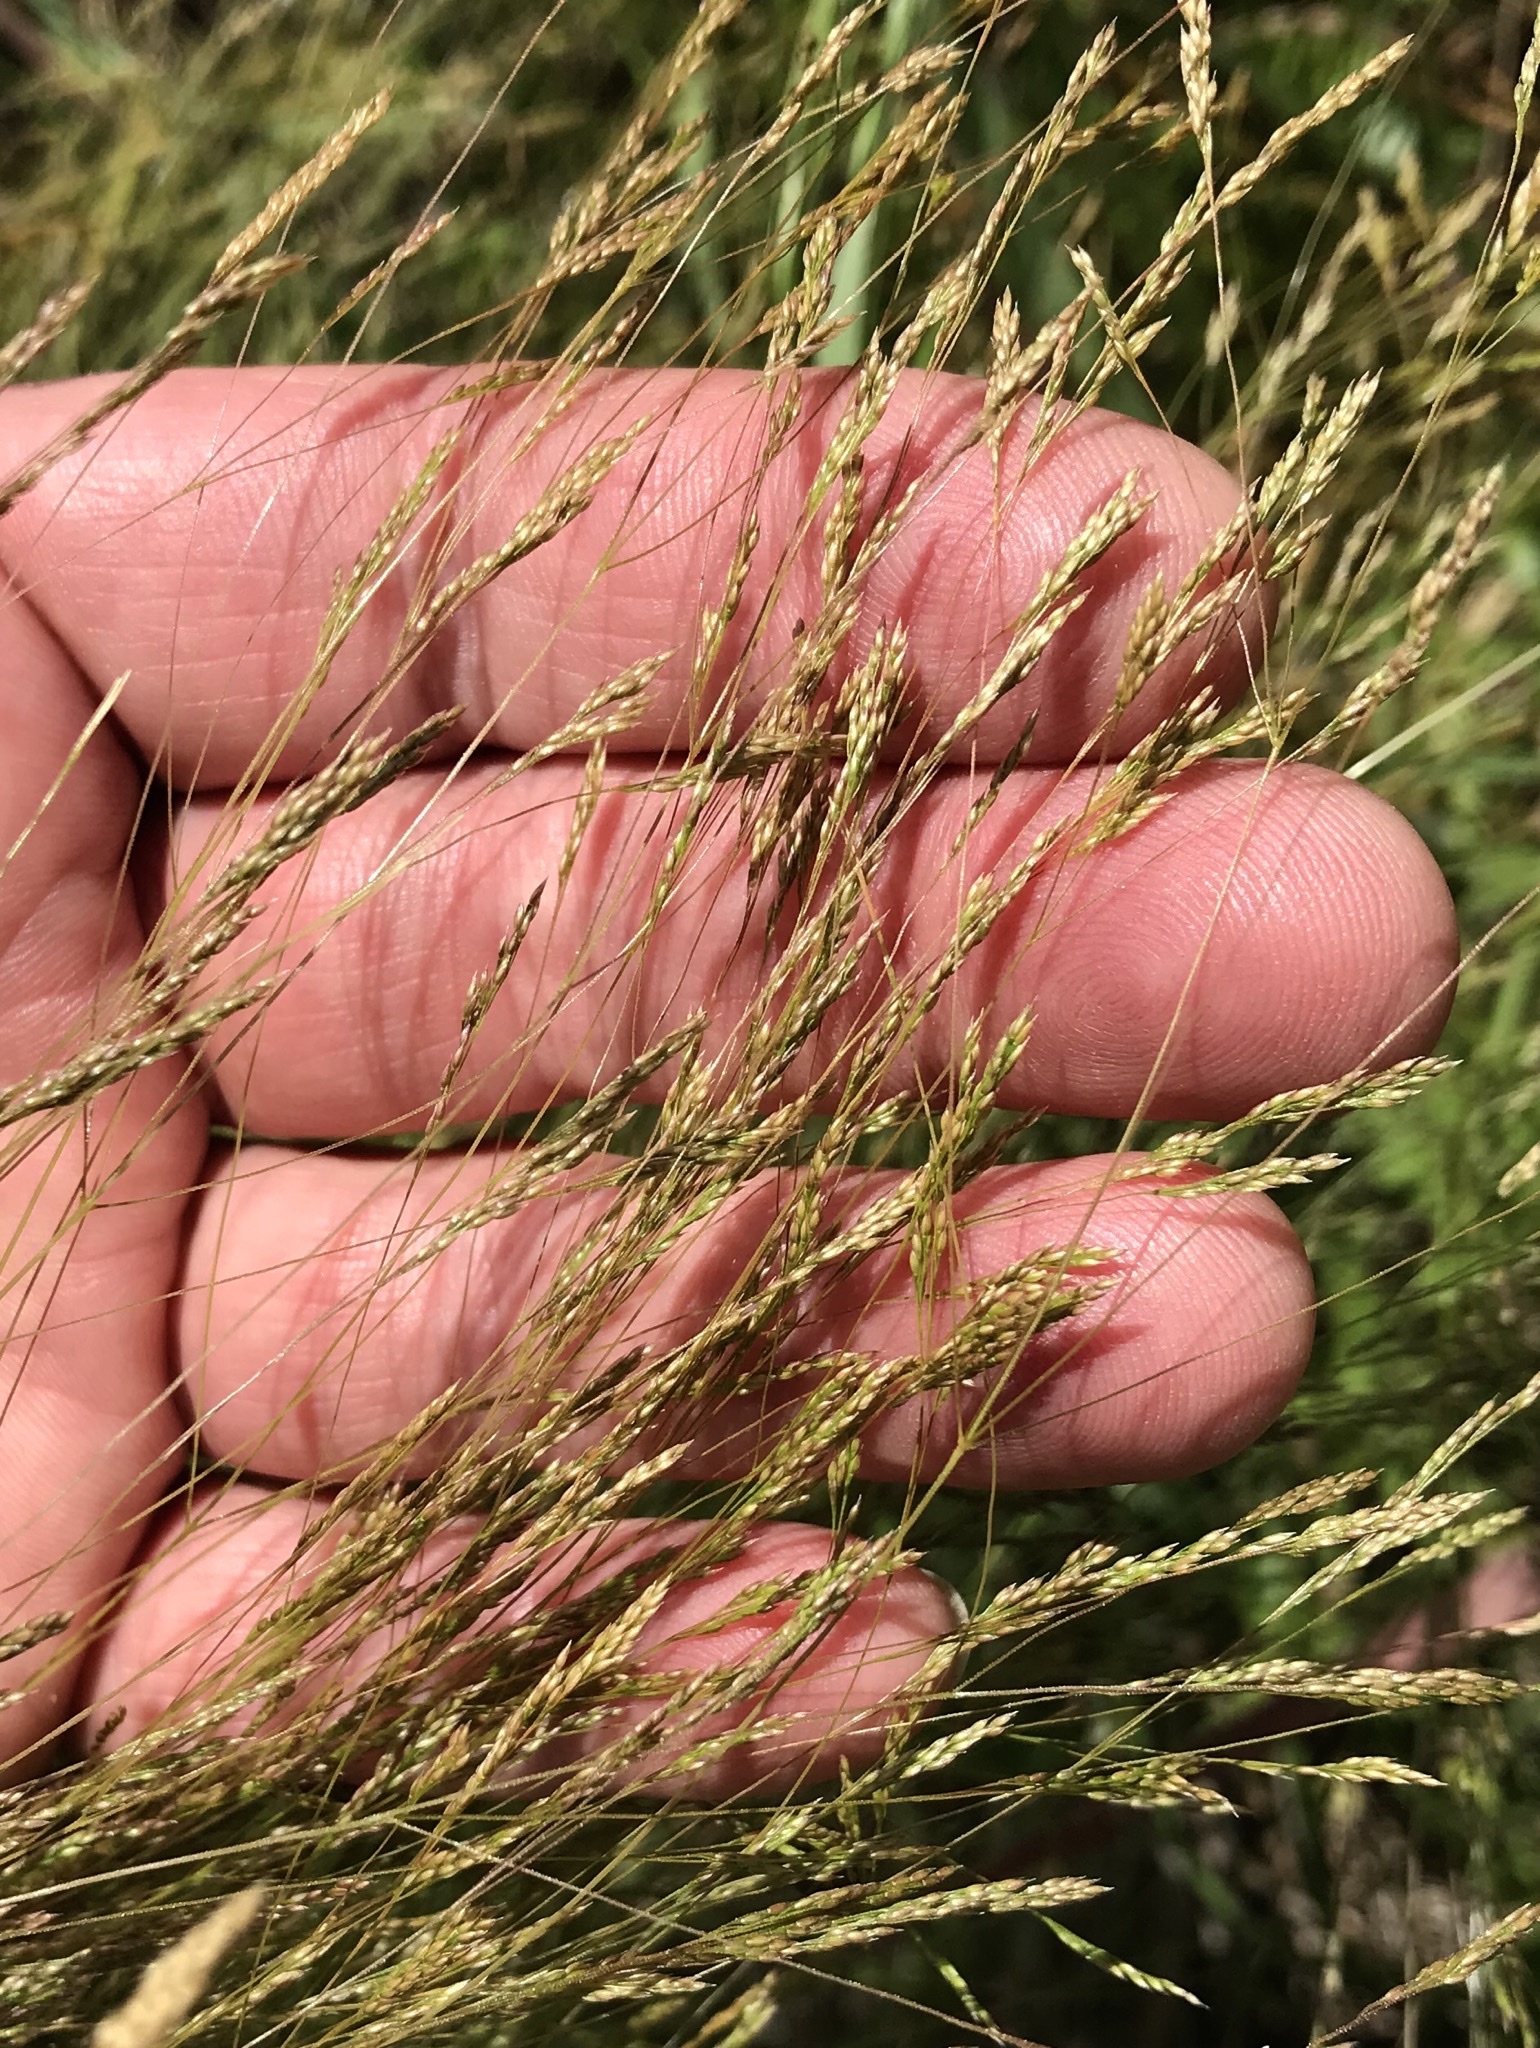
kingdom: Plantae
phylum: Tracheophyta
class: Liliopsida
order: Poales
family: Poaceae
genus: Agrostis
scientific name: Agrostis hyemalis
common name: Small bent
